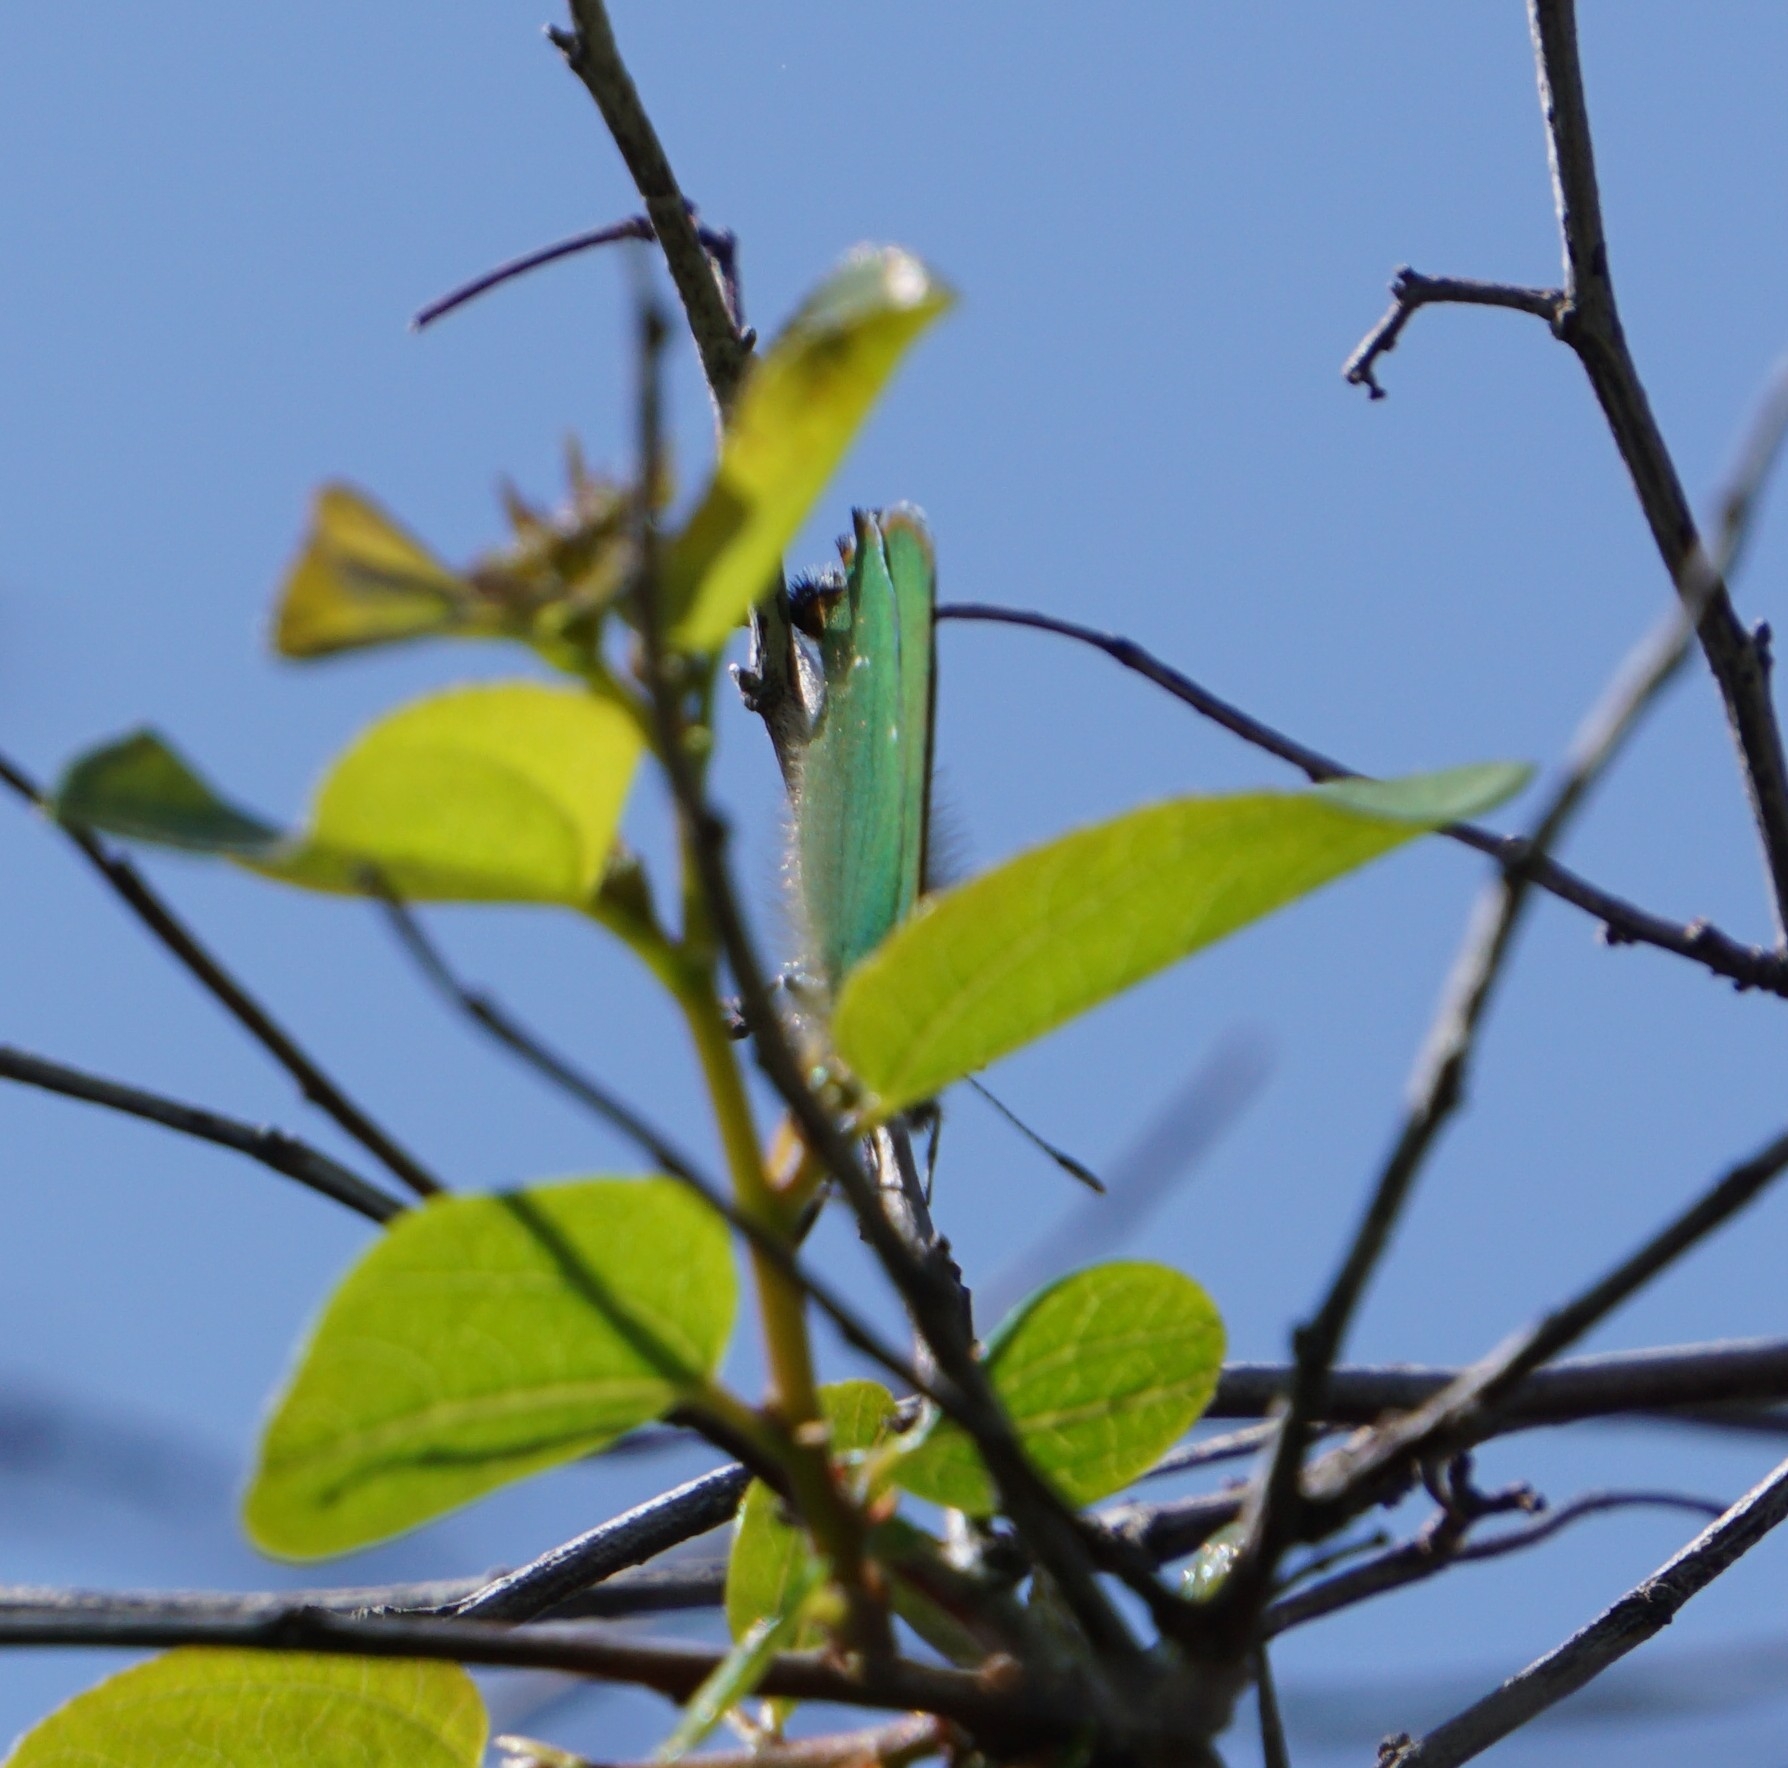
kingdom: Animalia
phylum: Arthropoda
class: Insecta
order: Lepidoptera
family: Lycaenidae
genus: Callophrys
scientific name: Callophrys rubi
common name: Green hairstreak
